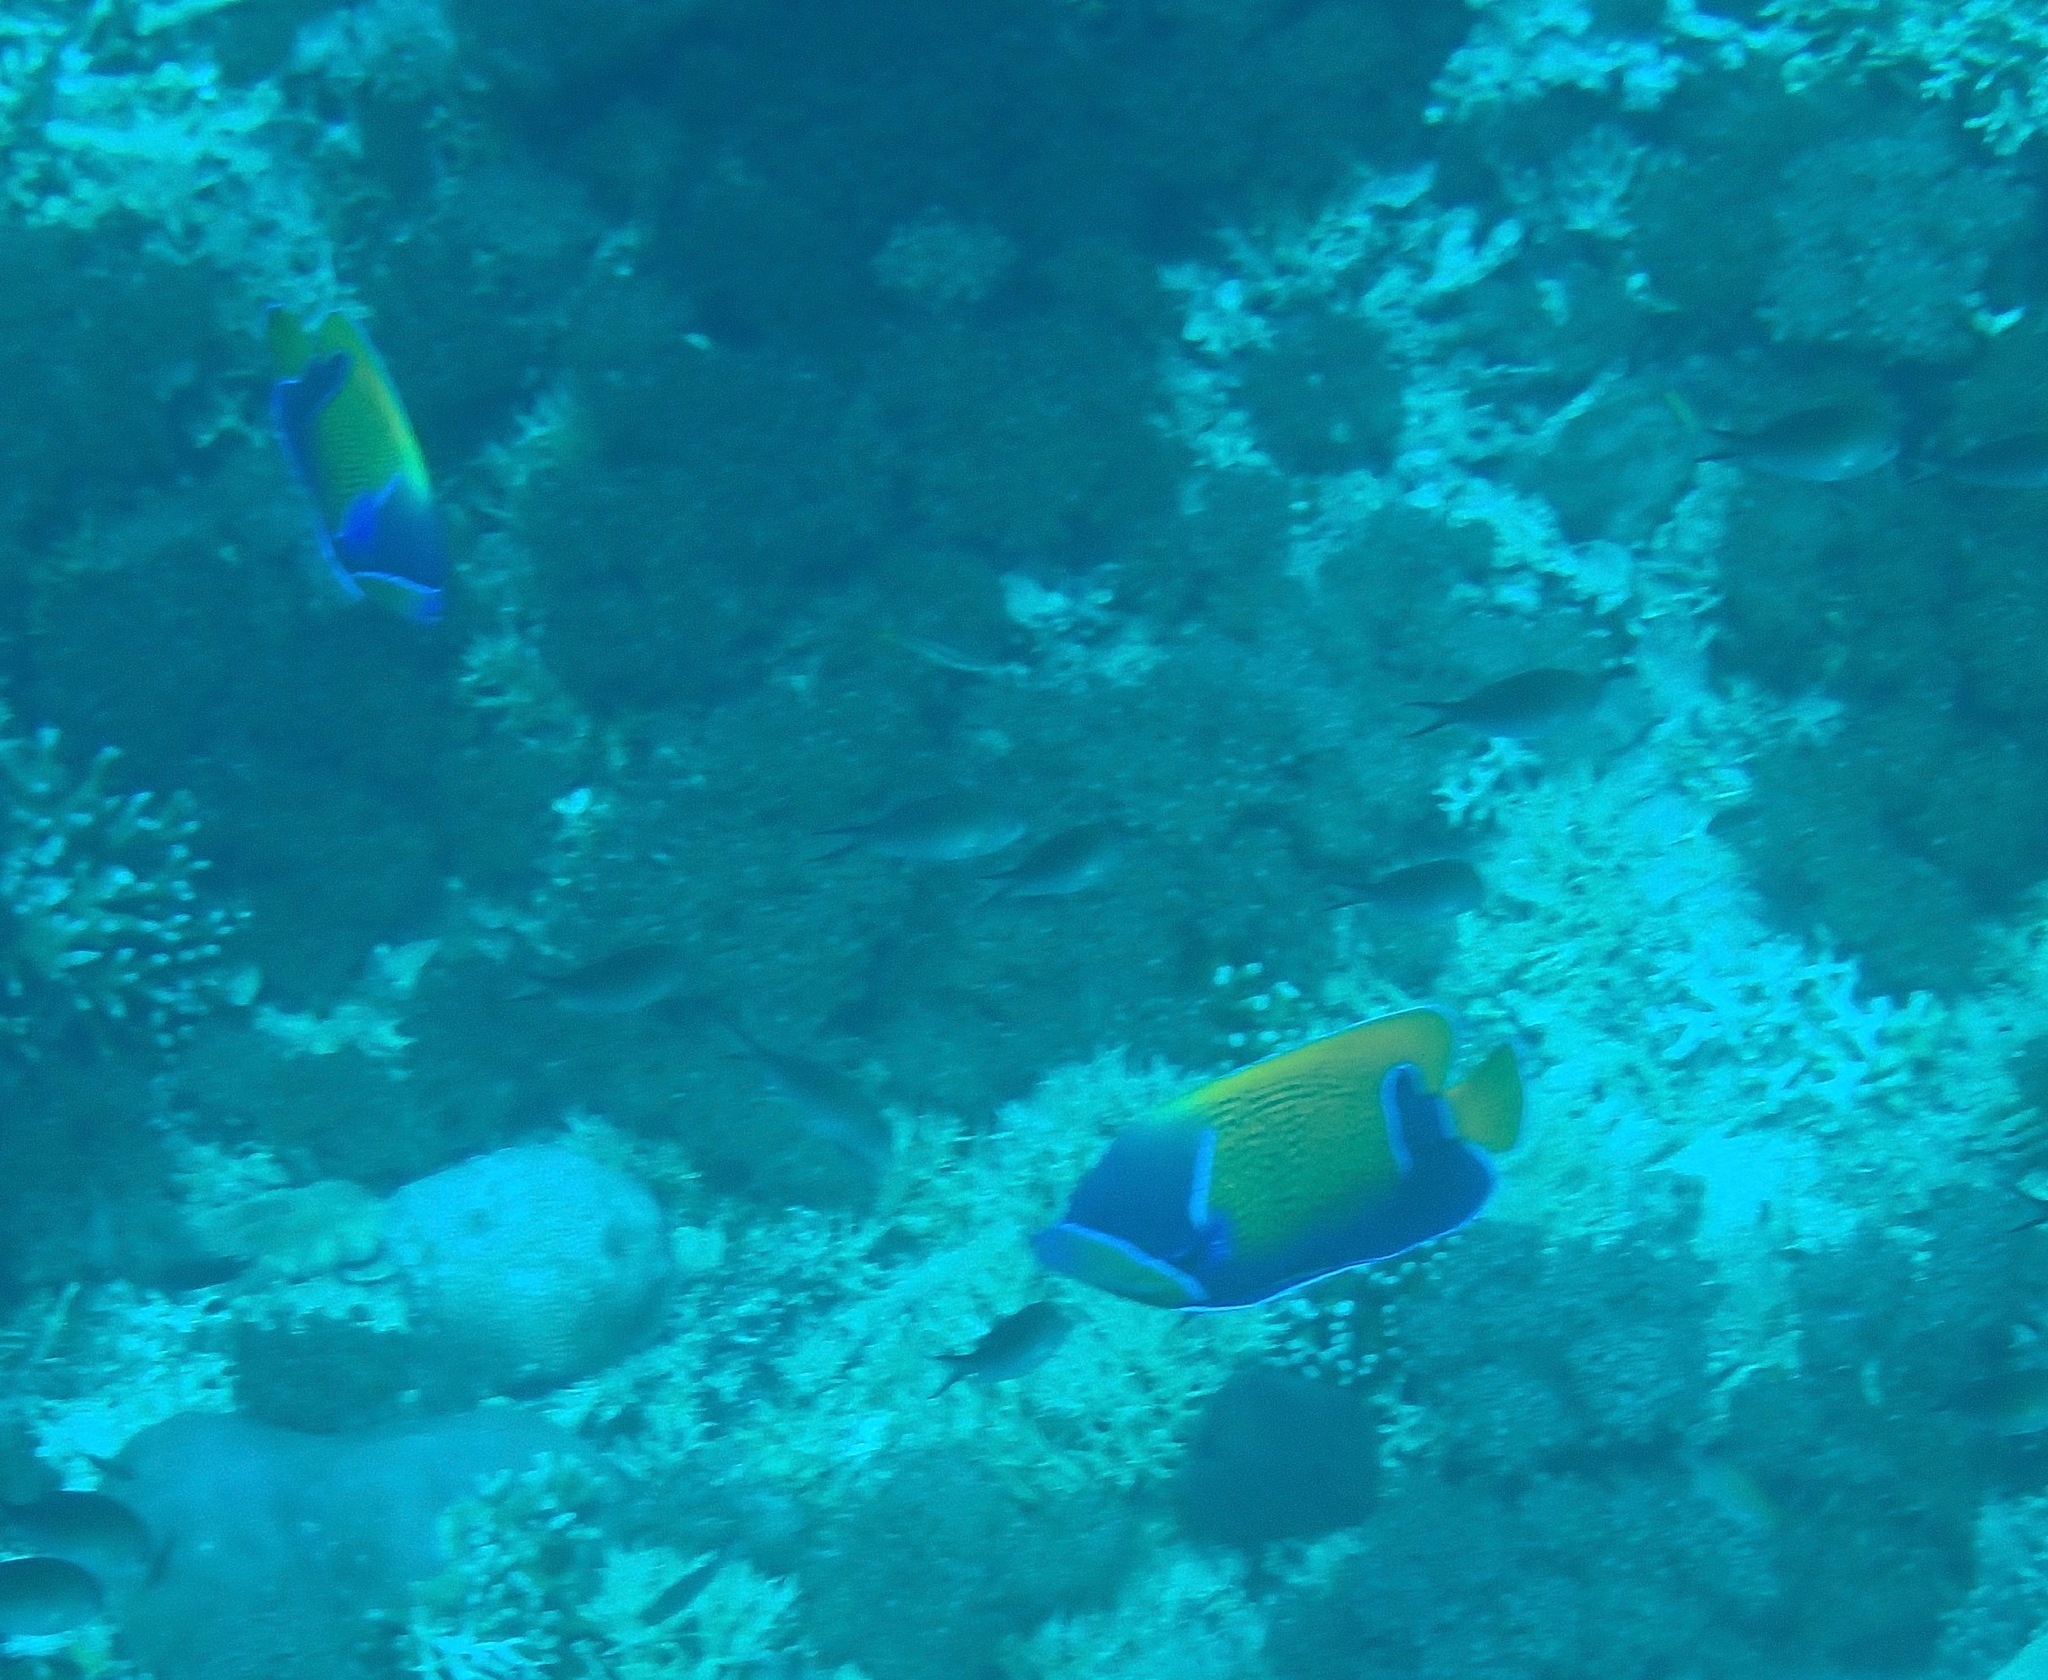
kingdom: Animalia
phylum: Chordata
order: Perciformes
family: Pomacanthidae
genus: Pomacanthus
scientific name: Pomacanthus navarchus
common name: Blue-girdled angelfish
